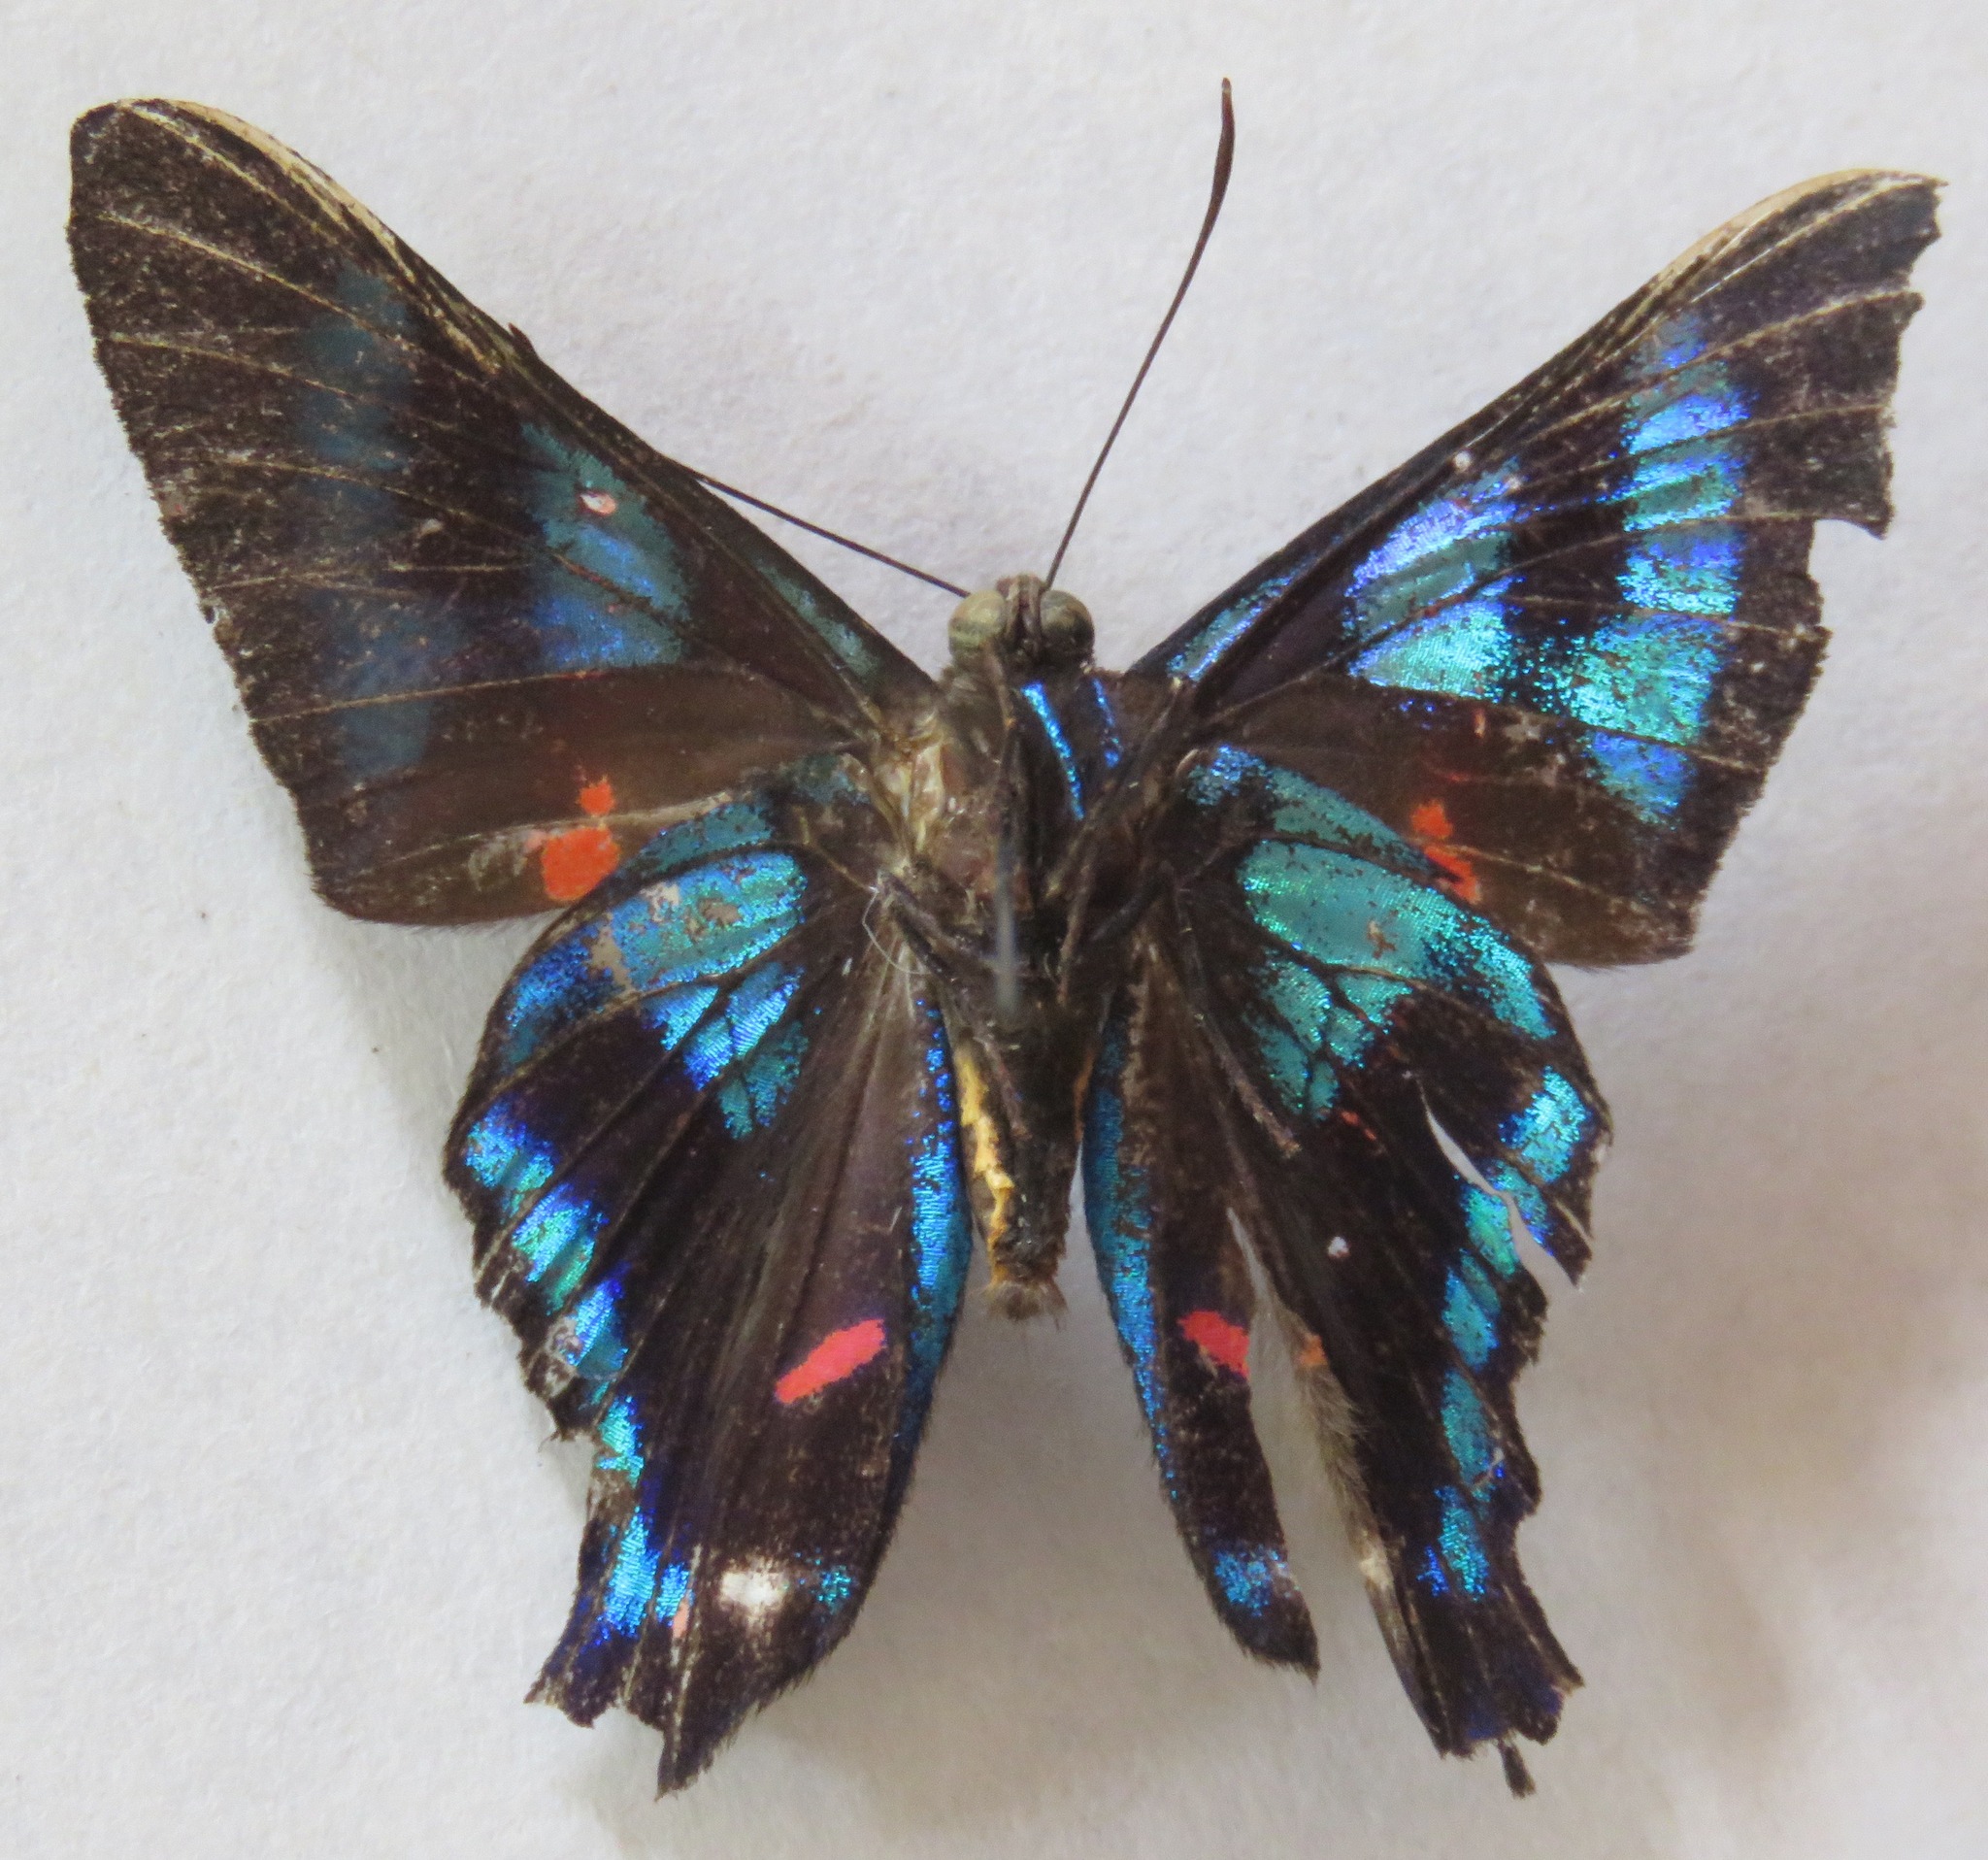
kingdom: Animalia
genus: Ancyluris
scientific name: Ancyluris jurgensenii
